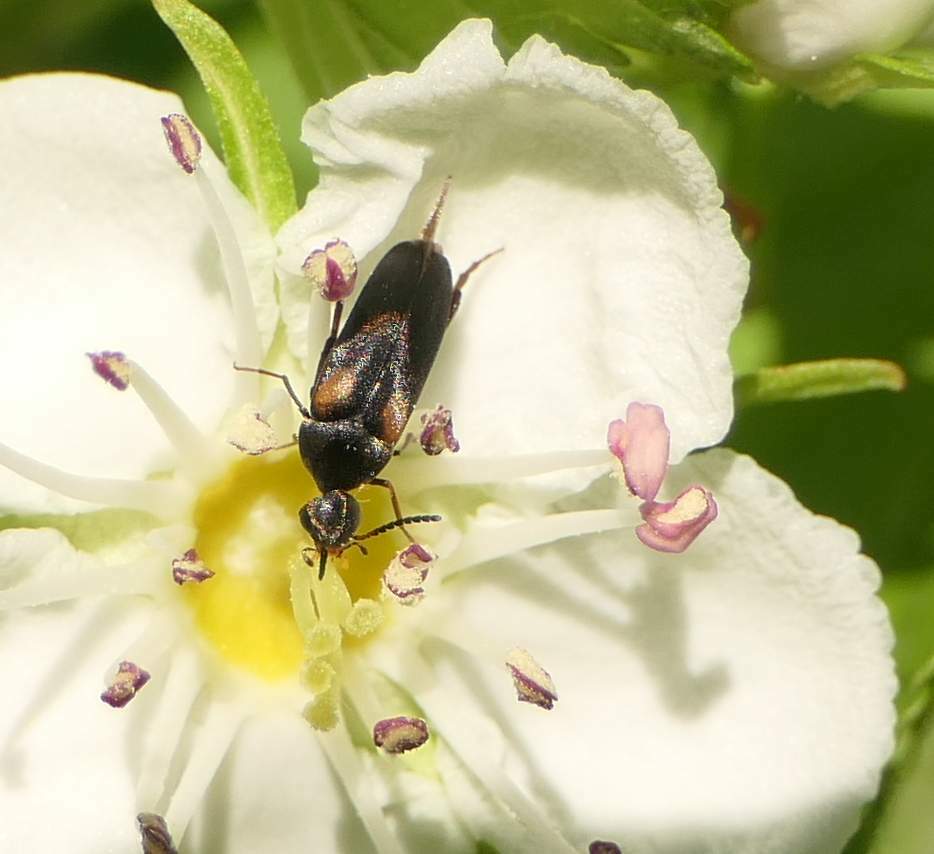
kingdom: Animalia
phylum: Arthropoda
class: Insecta
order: Coleoptera
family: Mordellidae
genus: Mordellochroa
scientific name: Mordellochroa scapularis
